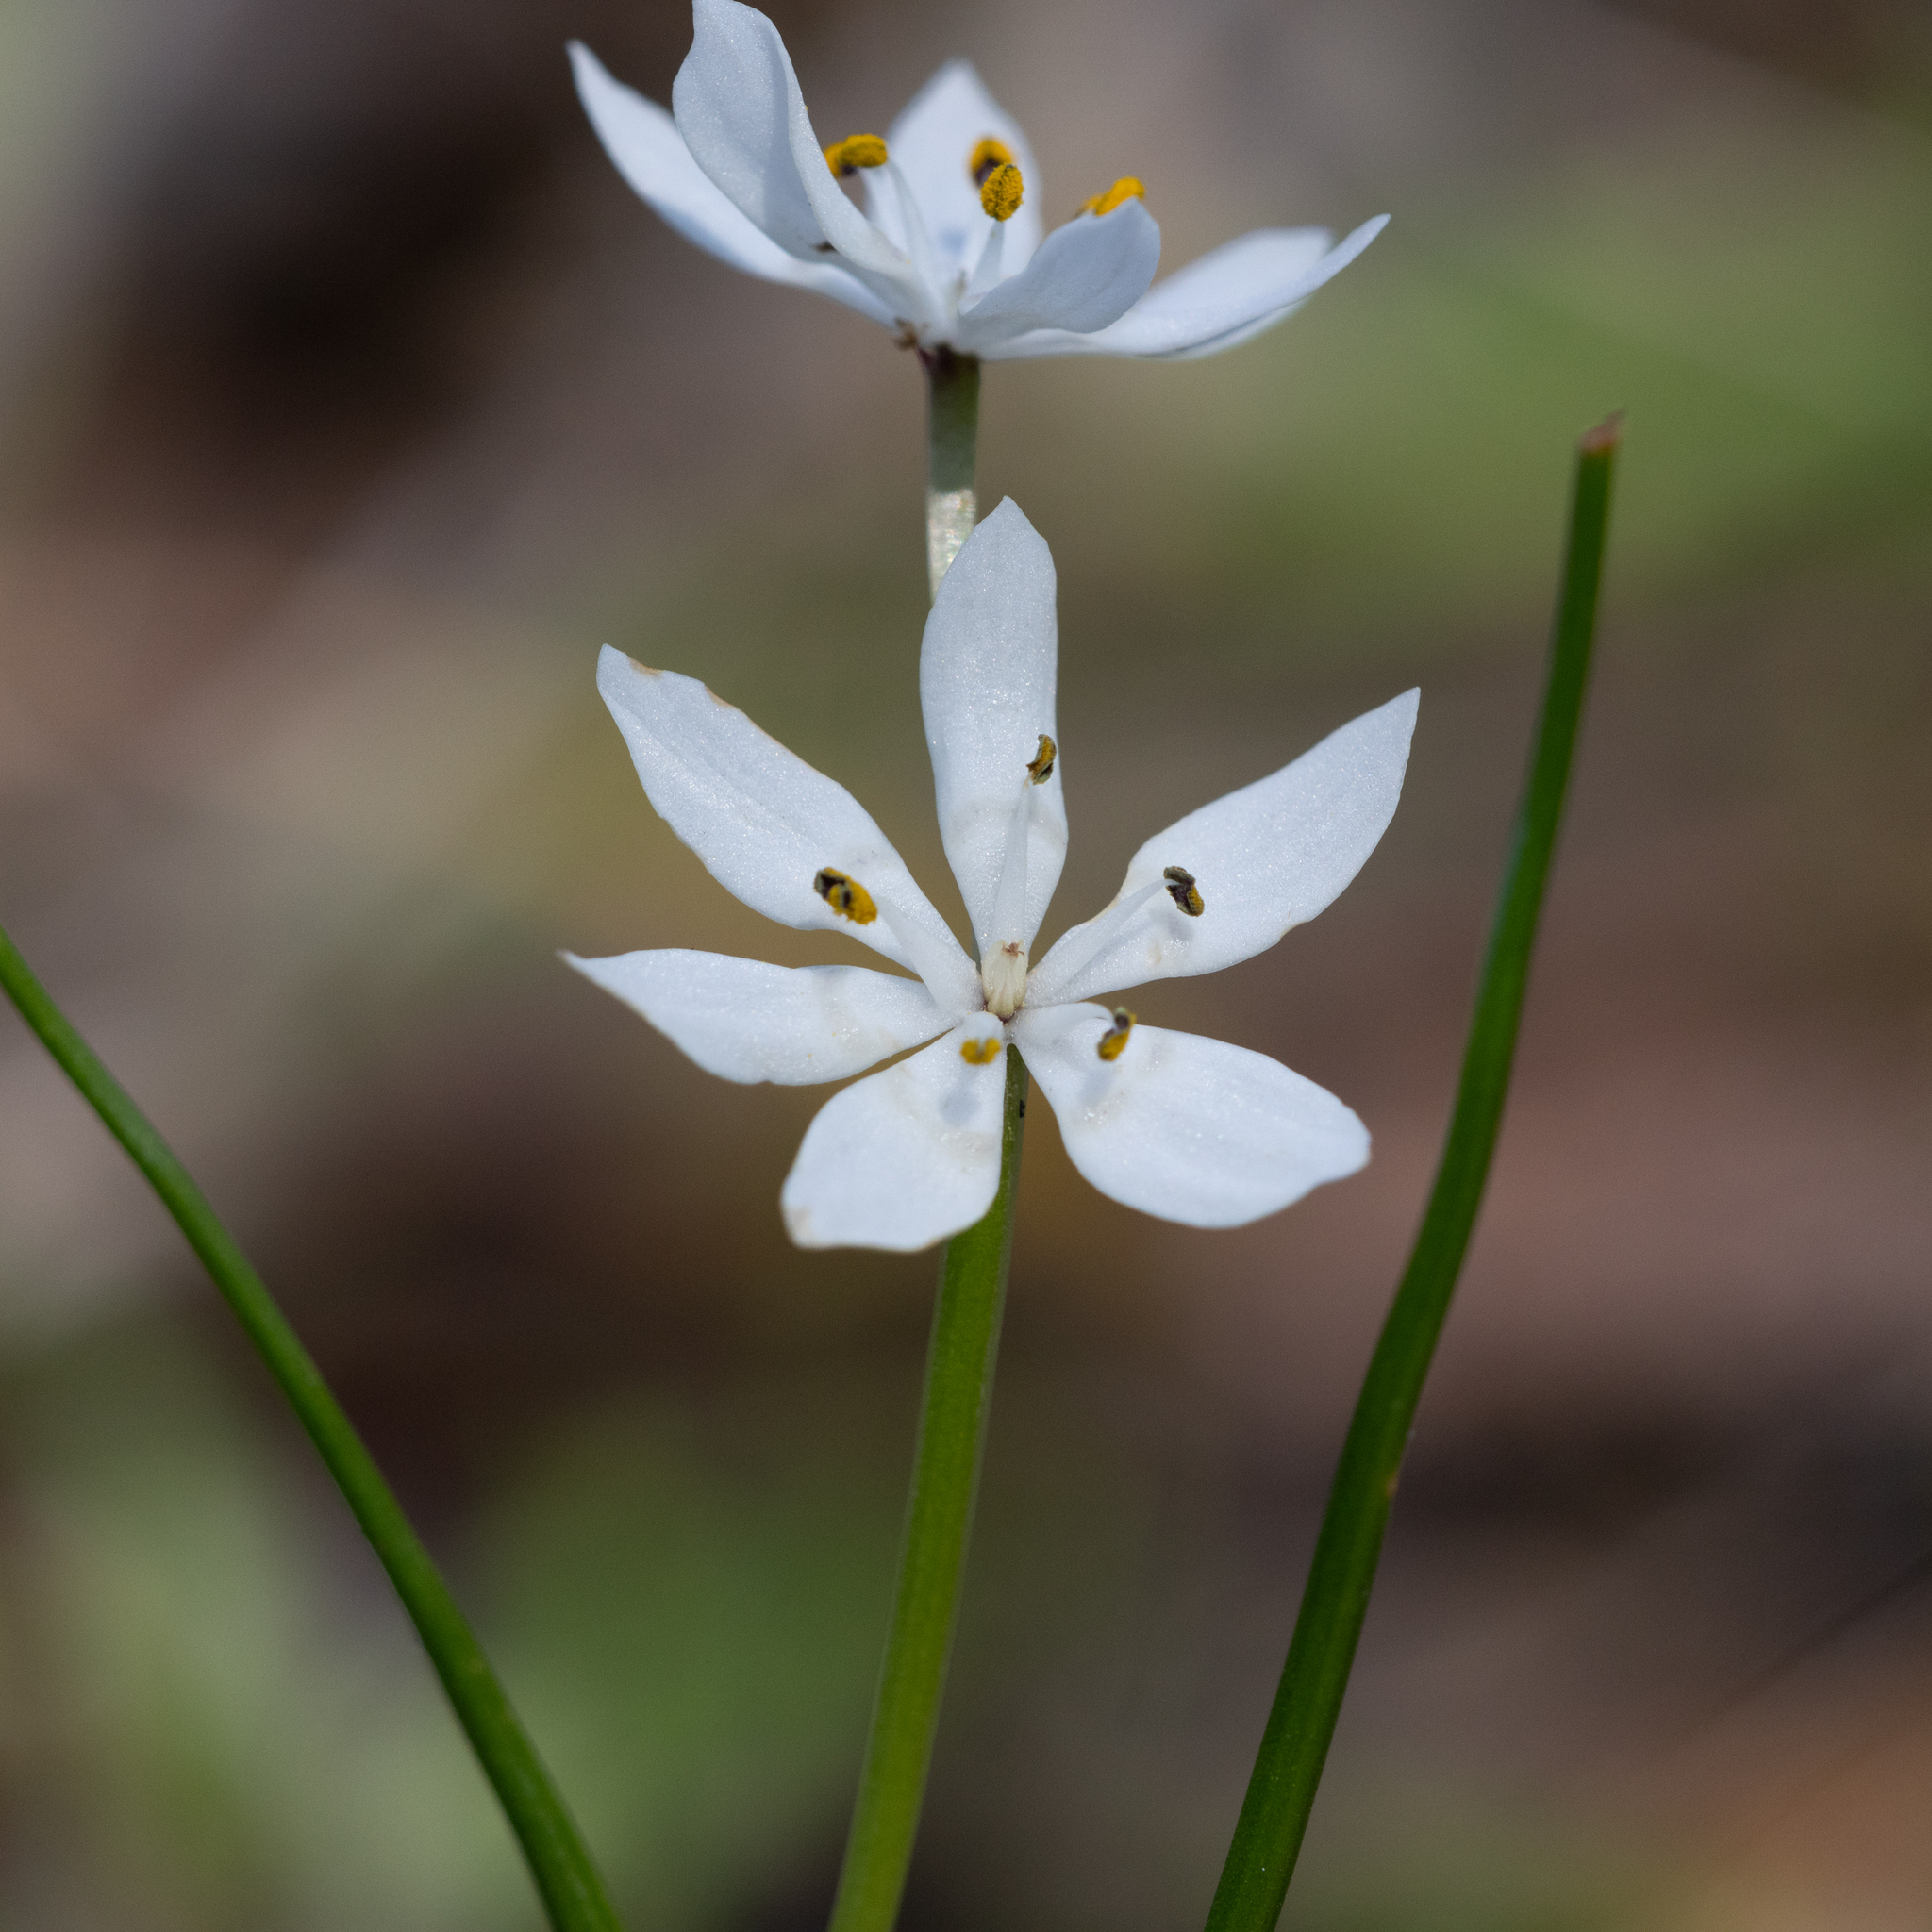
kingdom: Plantae
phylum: Tracheophyta
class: Liliopsida
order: Liliales
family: Colchicaceae
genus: Wurmbea
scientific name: Wurmbea dioica
